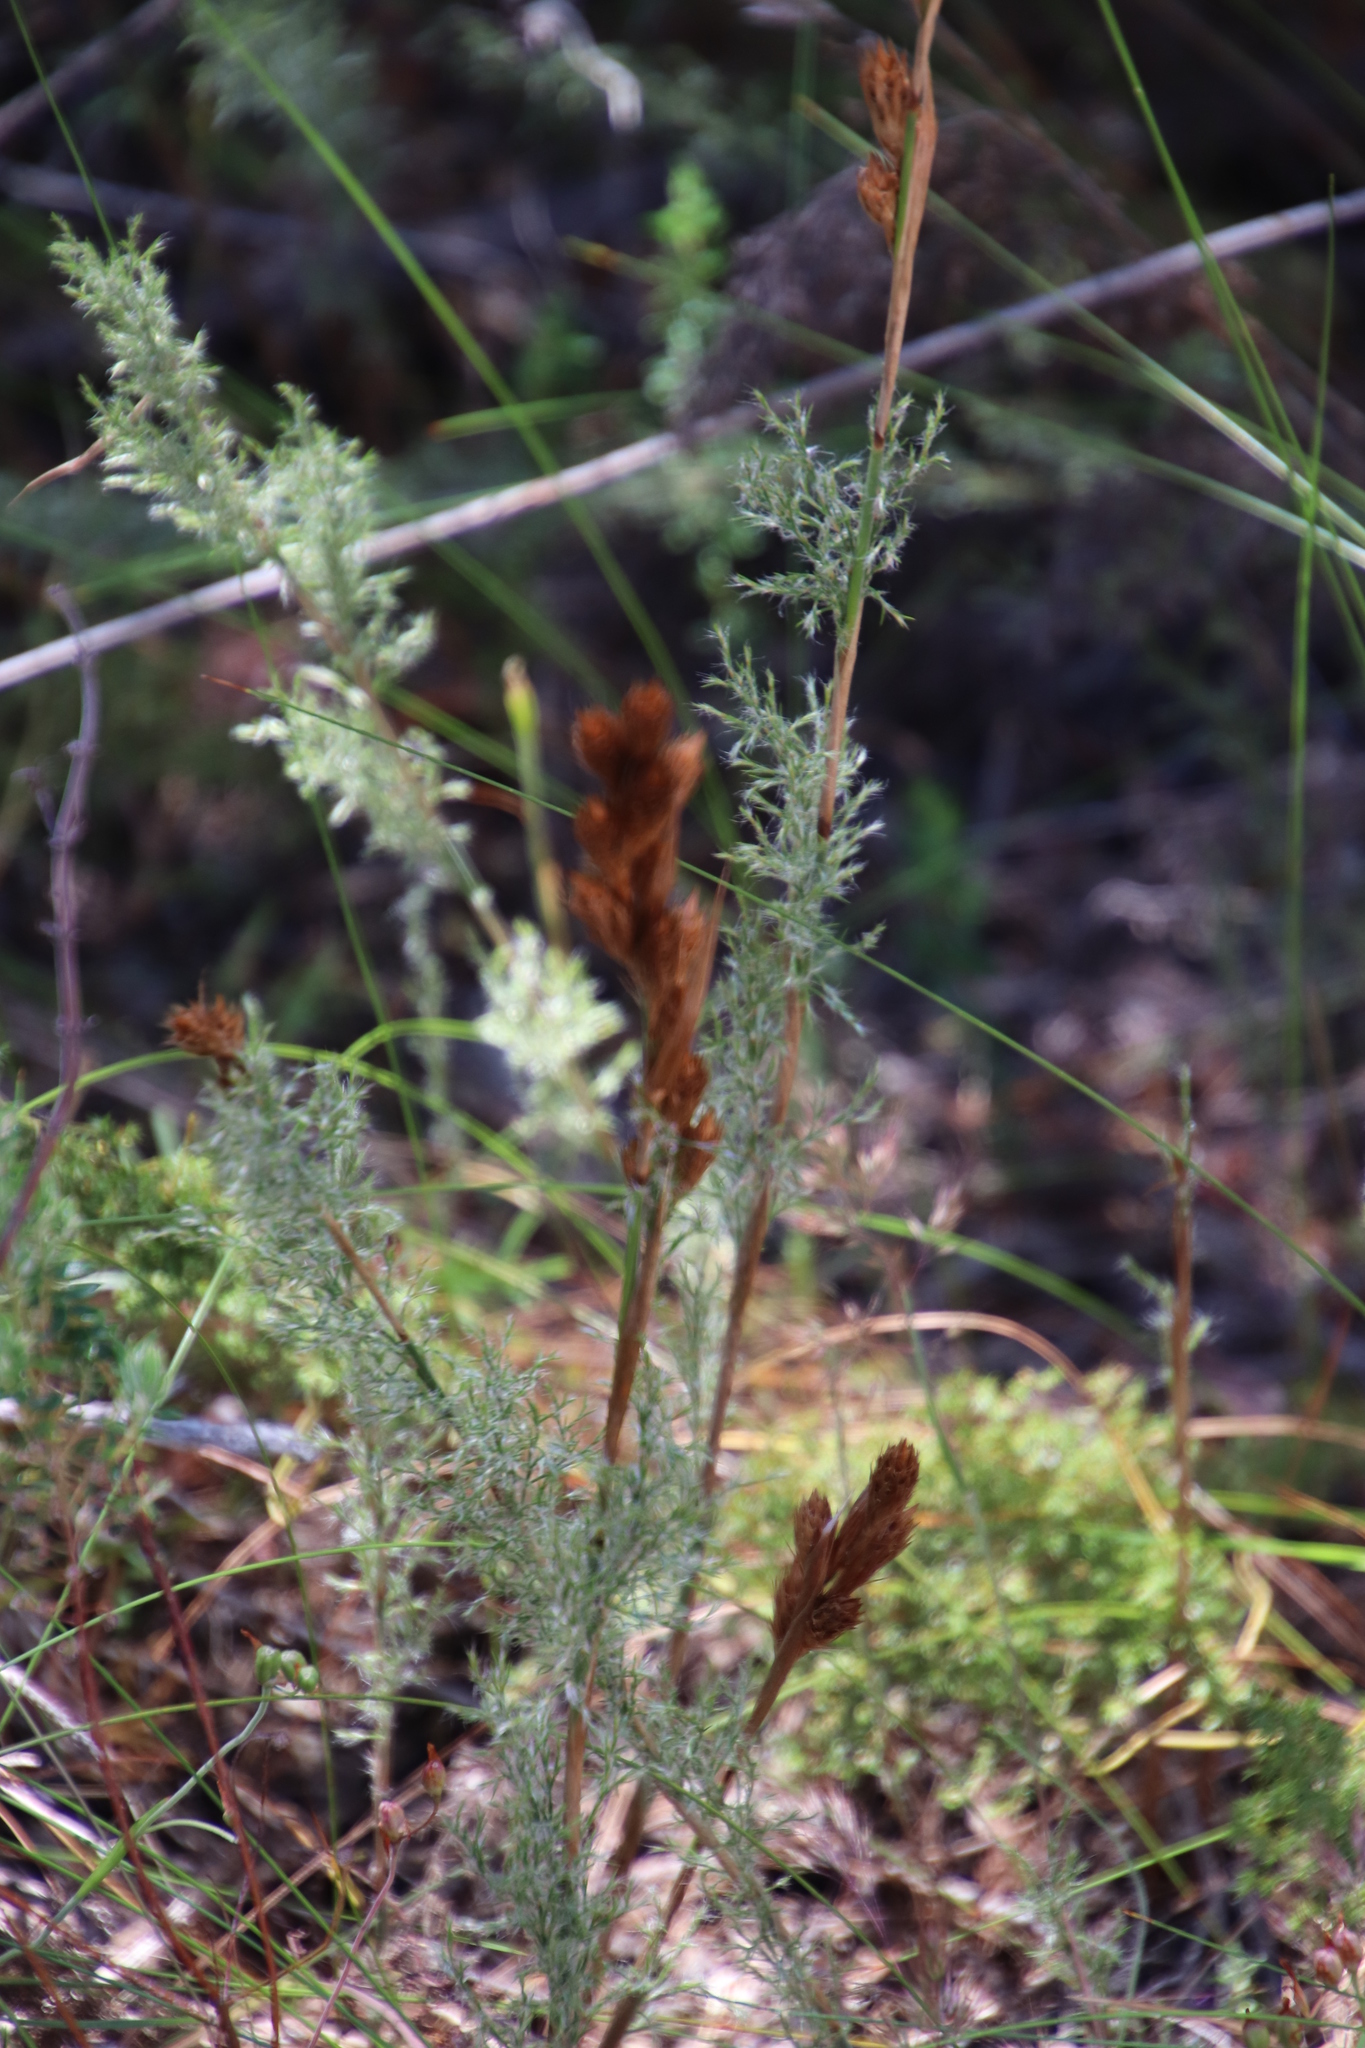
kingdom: Plantae
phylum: Tracheophyta
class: Liliopsida
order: Poales
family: Restionaceae
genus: Thamnochortus
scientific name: Thamnochortus fruticosus
